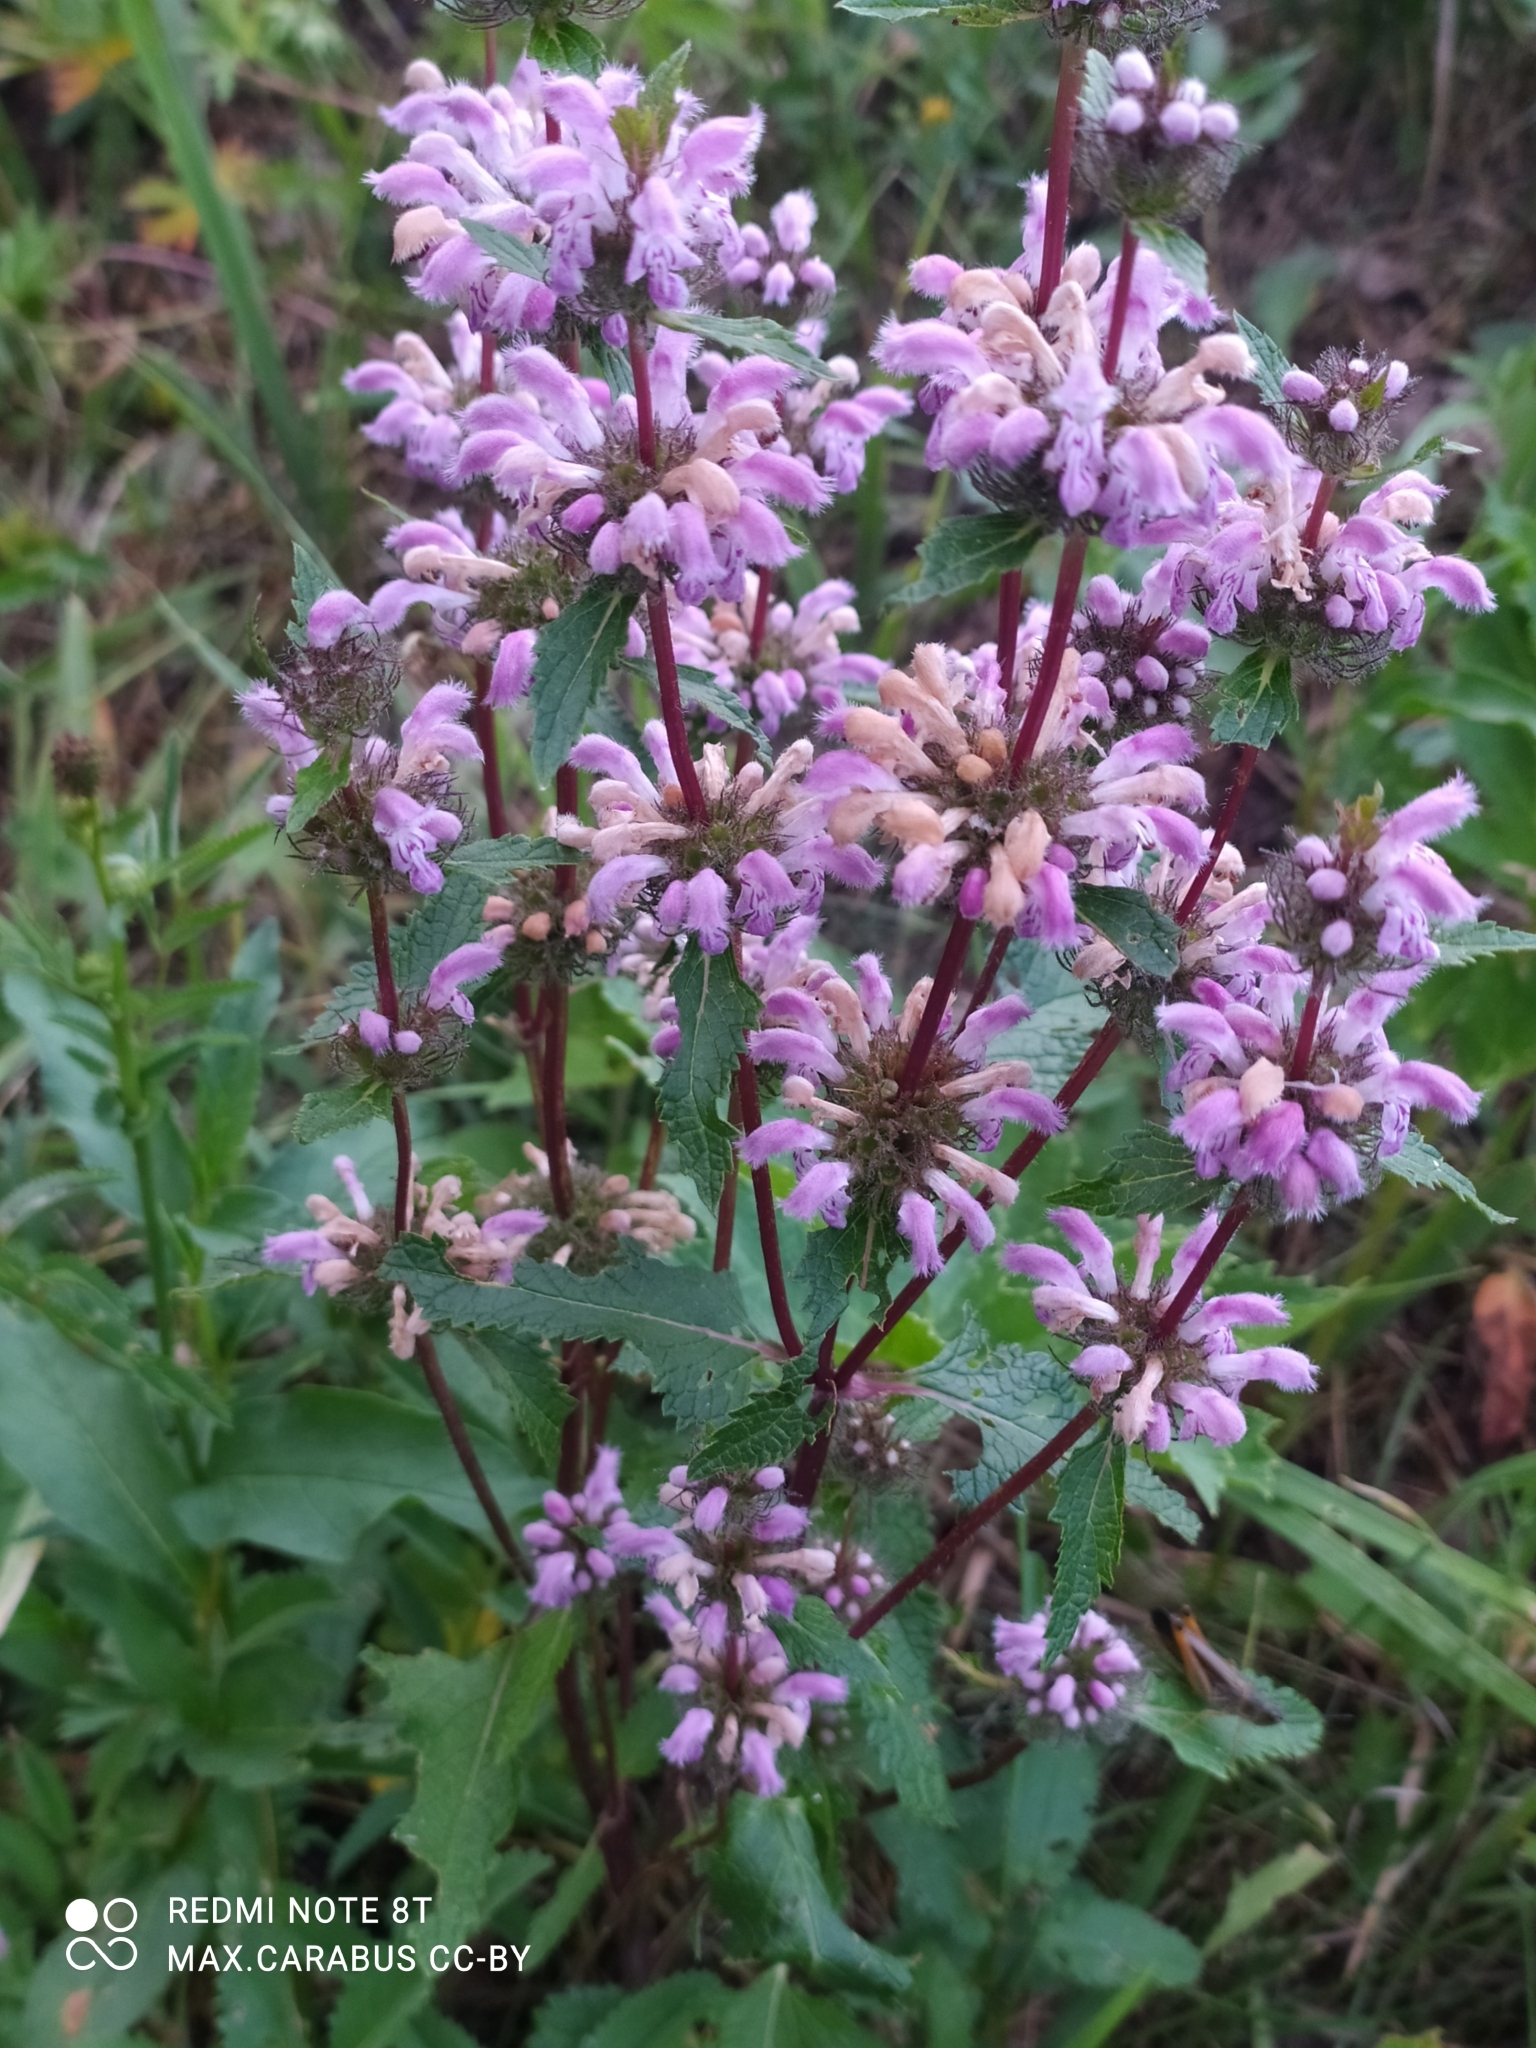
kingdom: Plantae
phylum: Tracheophyta
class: Magnoliopsida
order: Lamiales
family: Lamiaceae
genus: Phlomoides
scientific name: Phlomoides tuberosa
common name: Tuberous jerusalem sage
